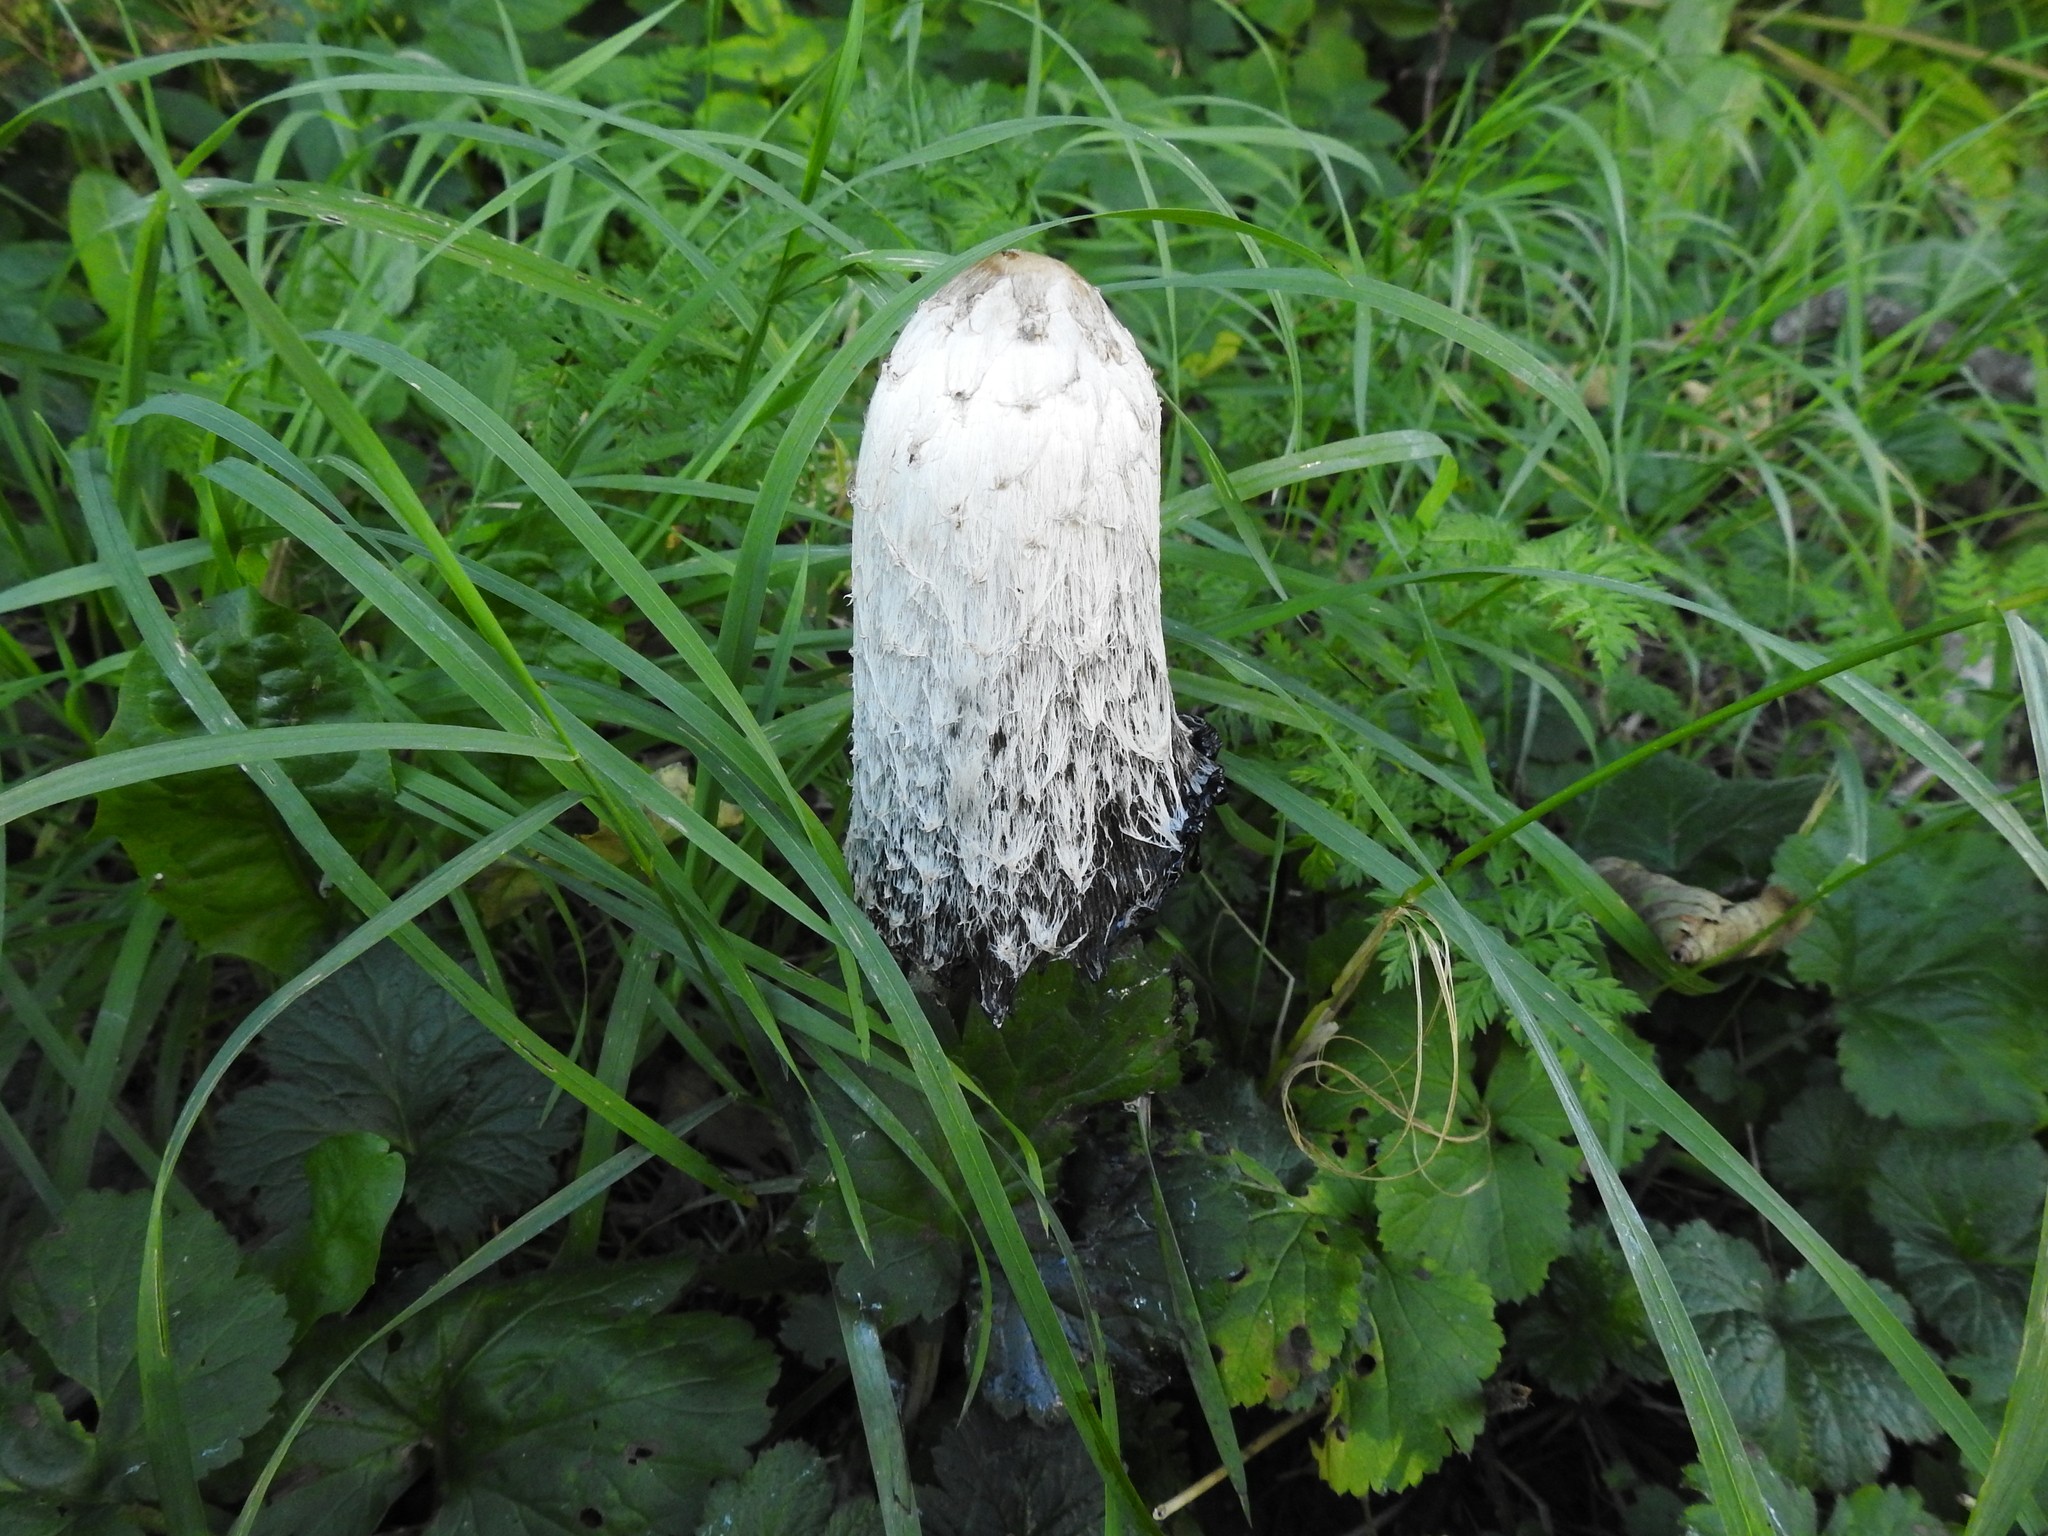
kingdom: Fungi
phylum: Basidiomycota
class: Agaricomycetes
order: Agaricales
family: Agaricaceae
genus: Coprinus
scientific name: Coprinus comatus
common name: Lawyer's wig
